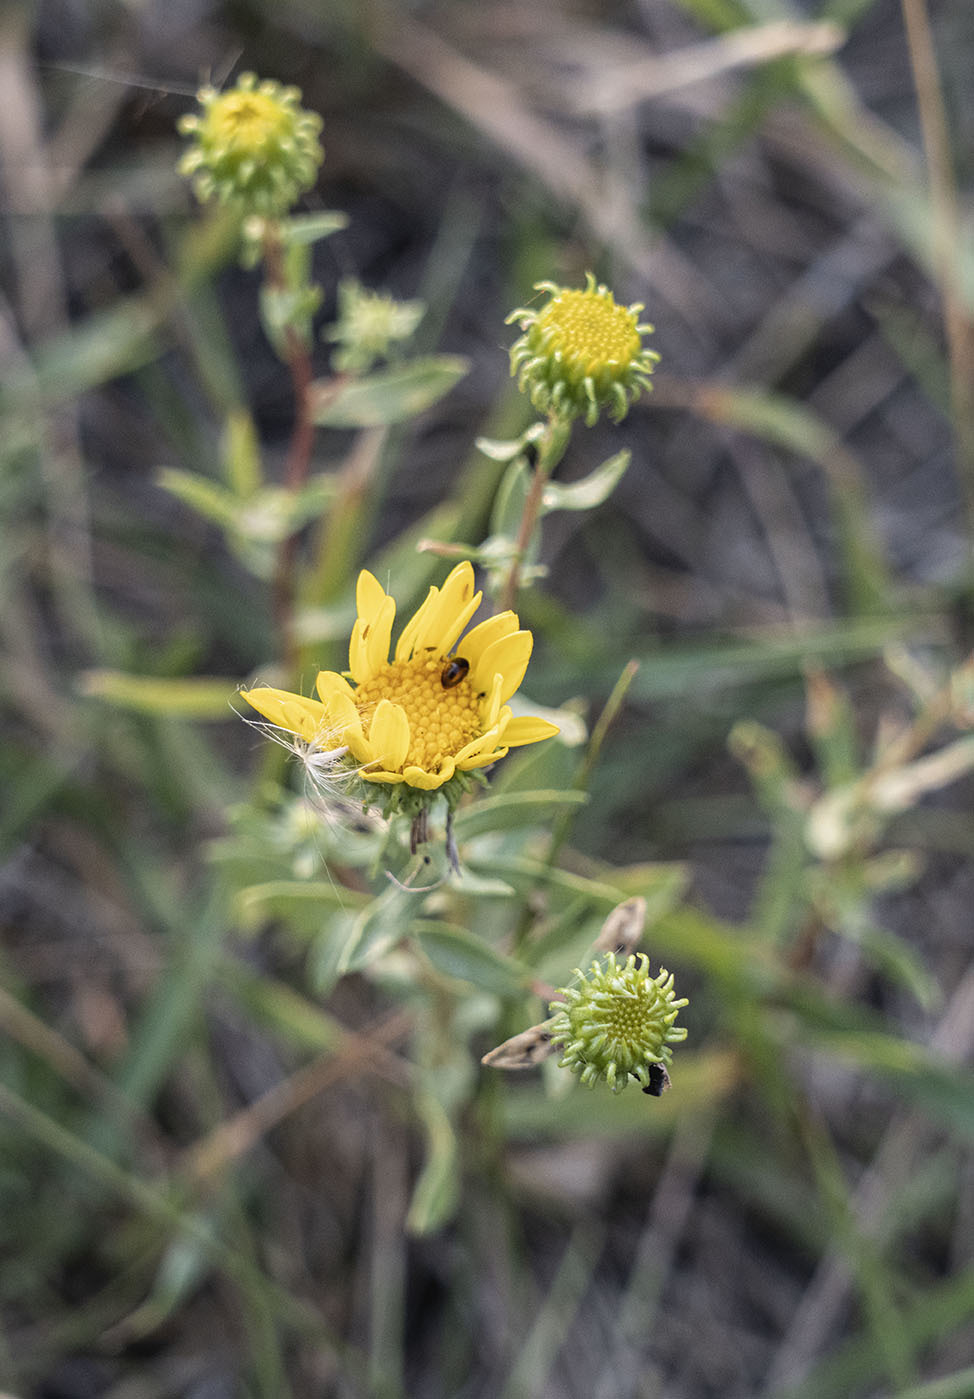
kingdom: Plantae
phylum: Tracheophyta
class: Magnoliopsida
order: Asterales
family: Asteraceae
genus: Grindelia
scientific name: Grindelia squarrosa
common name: Curly-cup gumweed
